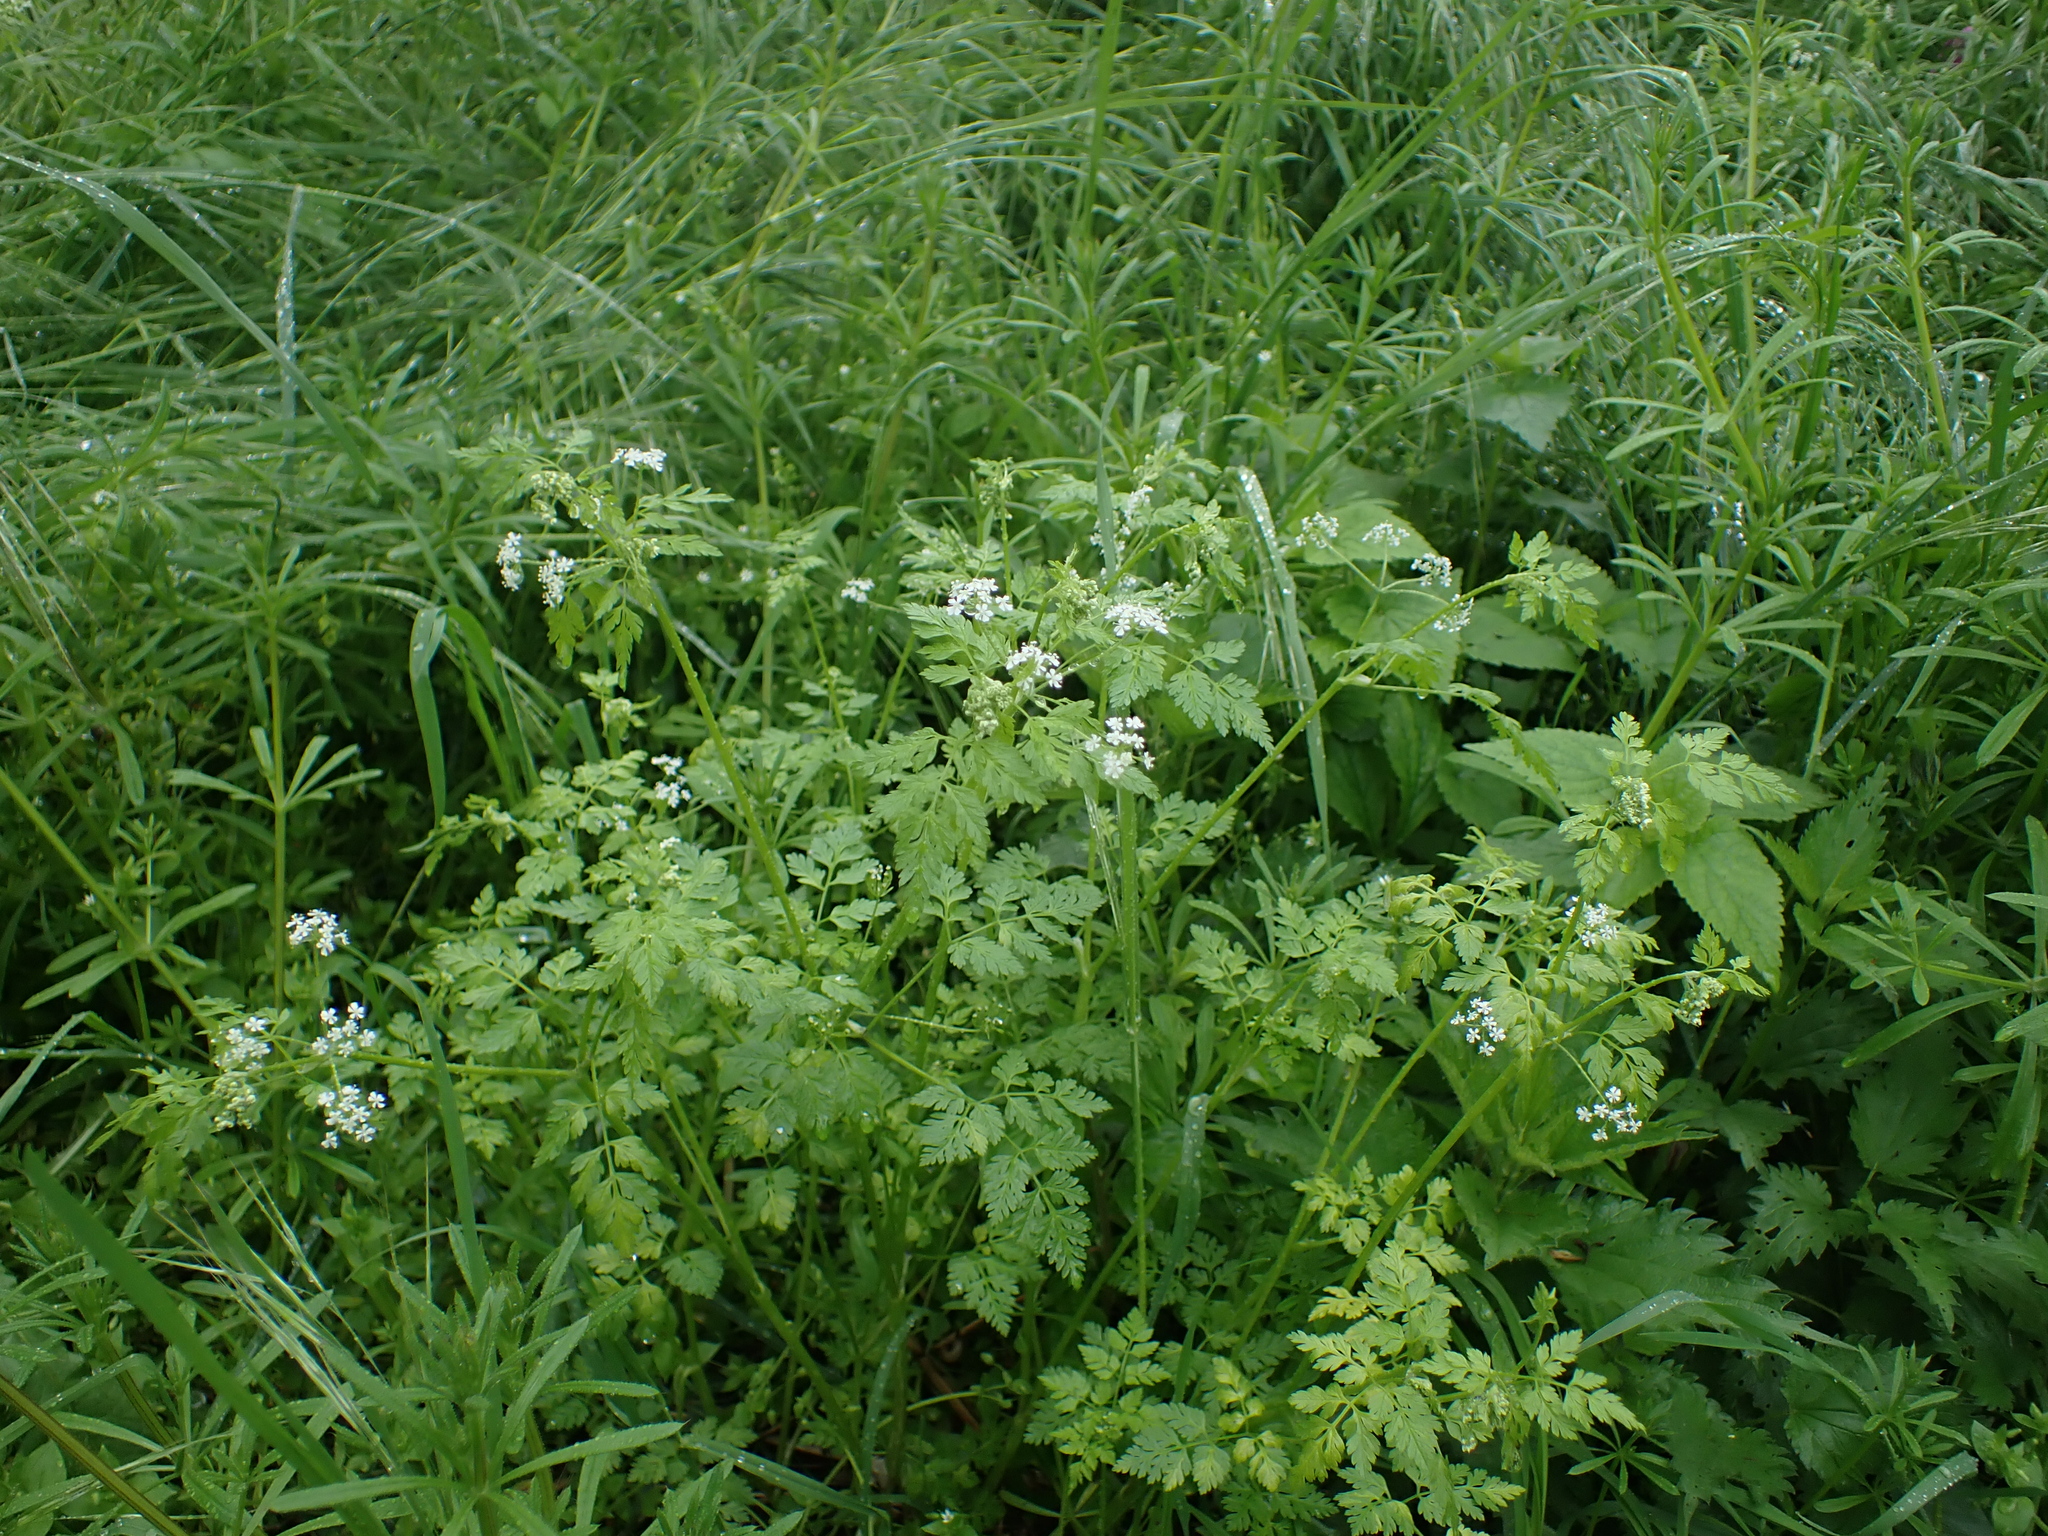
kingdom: Plantae
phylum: Tracheophyta
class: Magnoliopsida
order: Apiales
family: Apiaceae
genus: Anthriscus
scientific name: Anthriscus cerefolium
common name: Garden chervil
